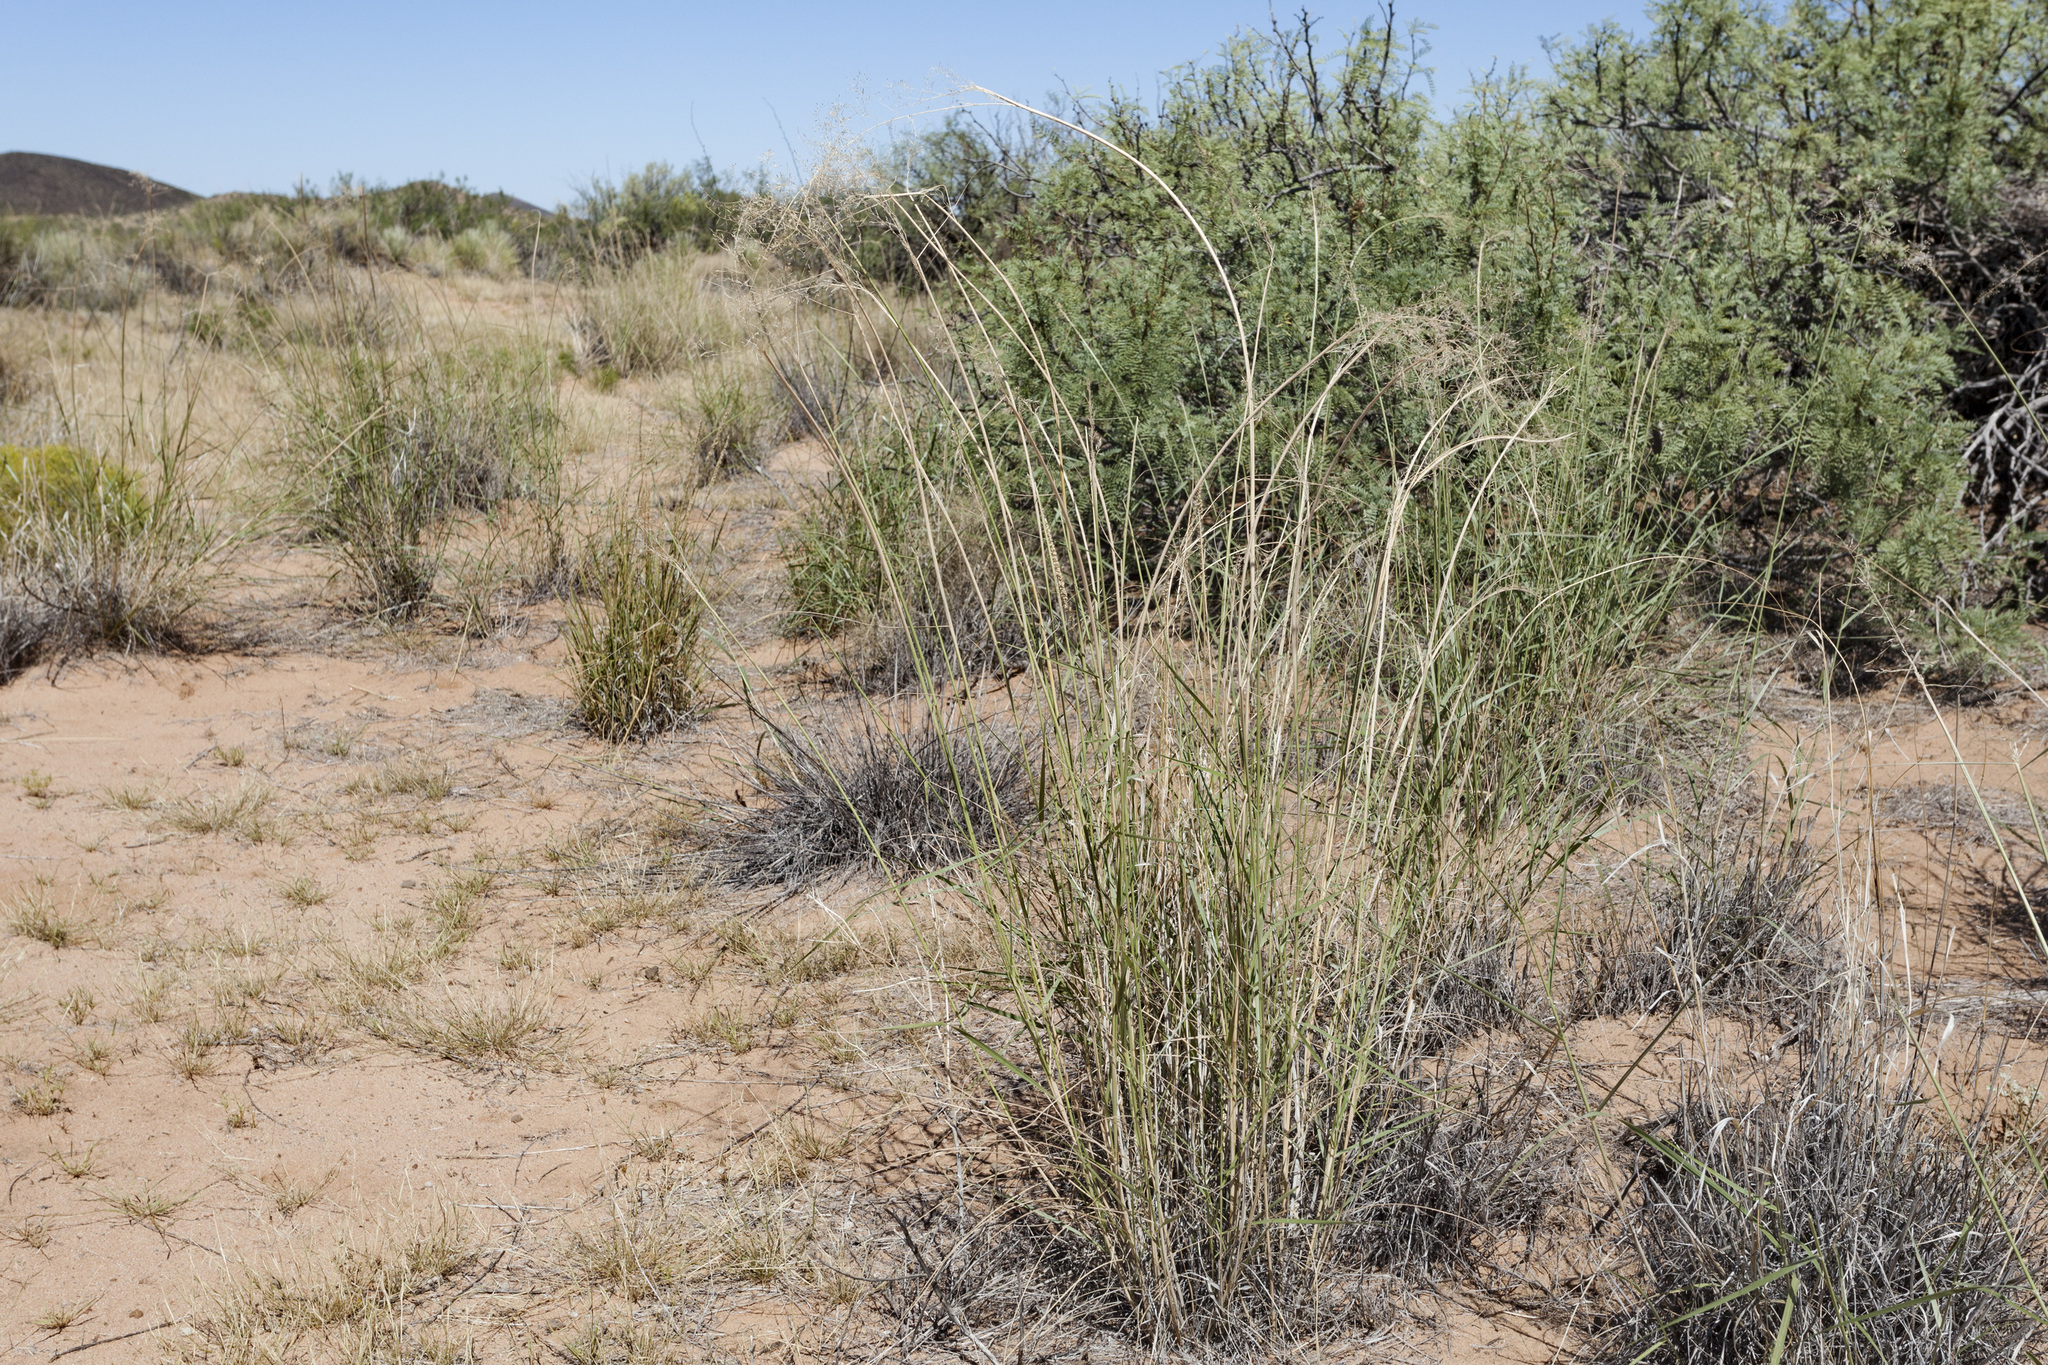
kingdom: Plantae
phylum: Tracheophyta
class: Liliopsida
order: Poales
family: Poaceae
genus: Sporobolus
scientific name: Sporobolus flexuosus
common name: Mesa dropseed
